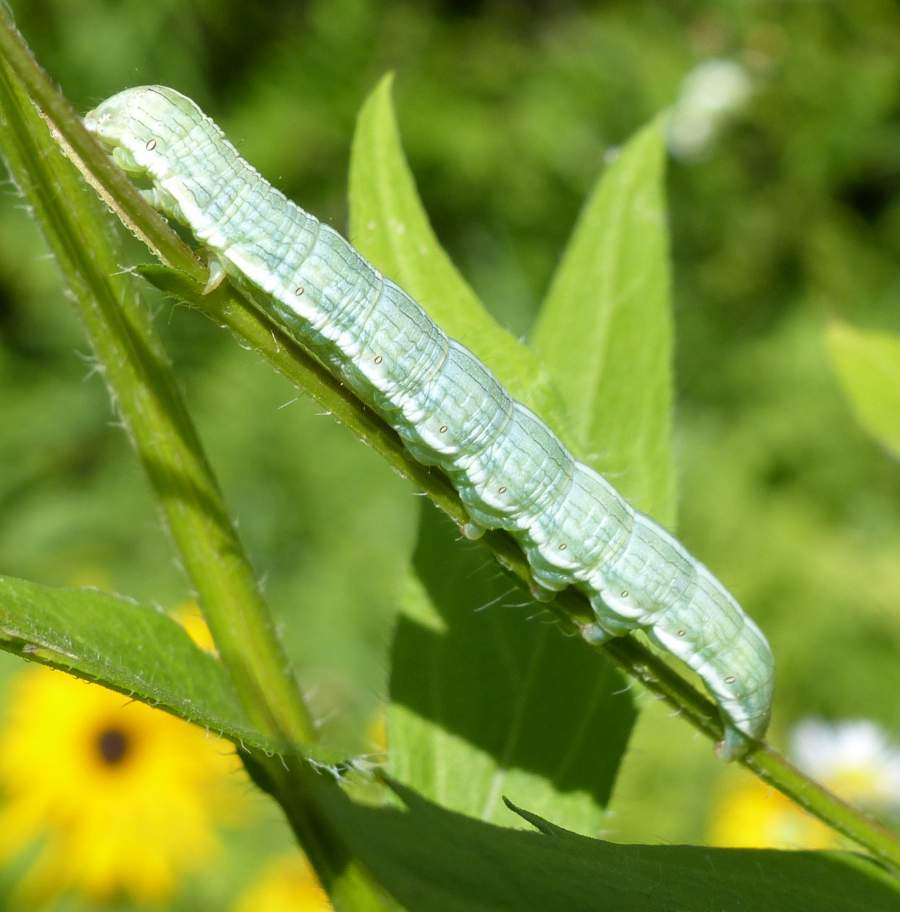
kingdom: Animalia
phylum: Arthropoda
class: Insecta
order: Lepidoptera
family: Noctuidae
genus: Cucullia
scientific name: Cucullia asteroides
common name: Asteroid moth
